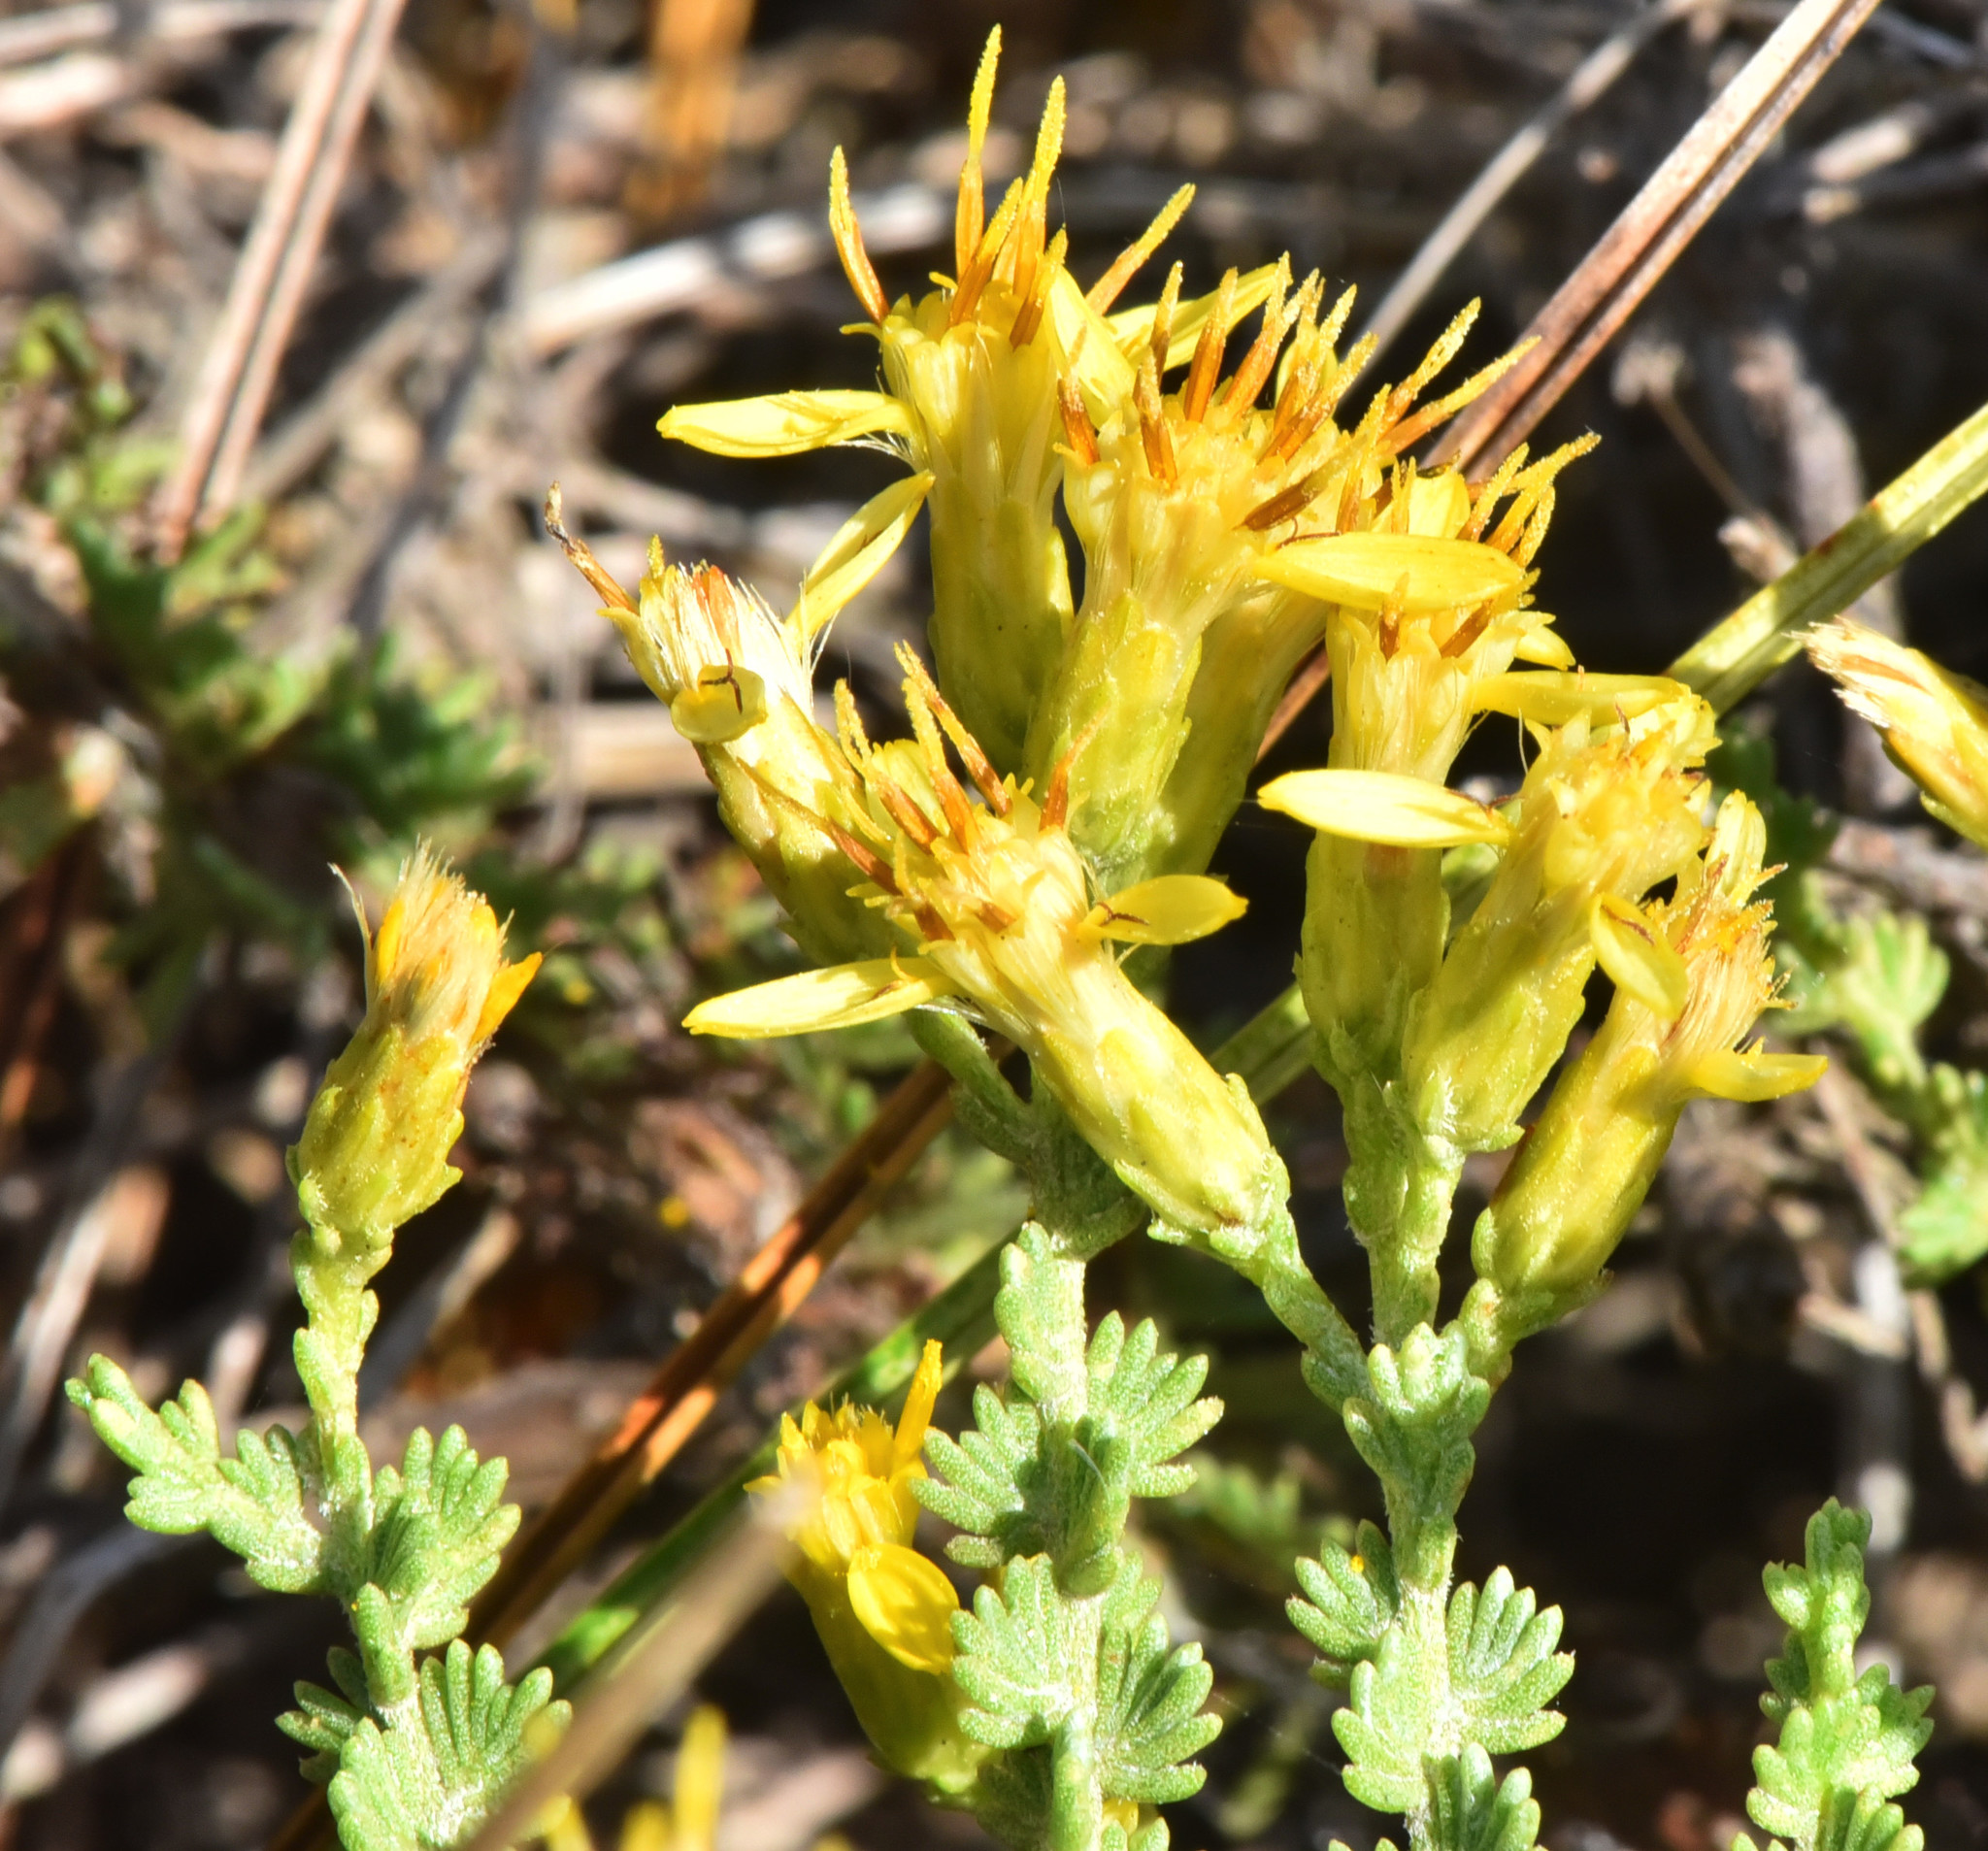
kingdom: Plantae
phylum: Tracheophyta
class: Magnoliopsida
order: Asterales
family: Asteraceae
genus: Ericameria
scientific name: Ericameria ericoides
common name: California goldenbush
